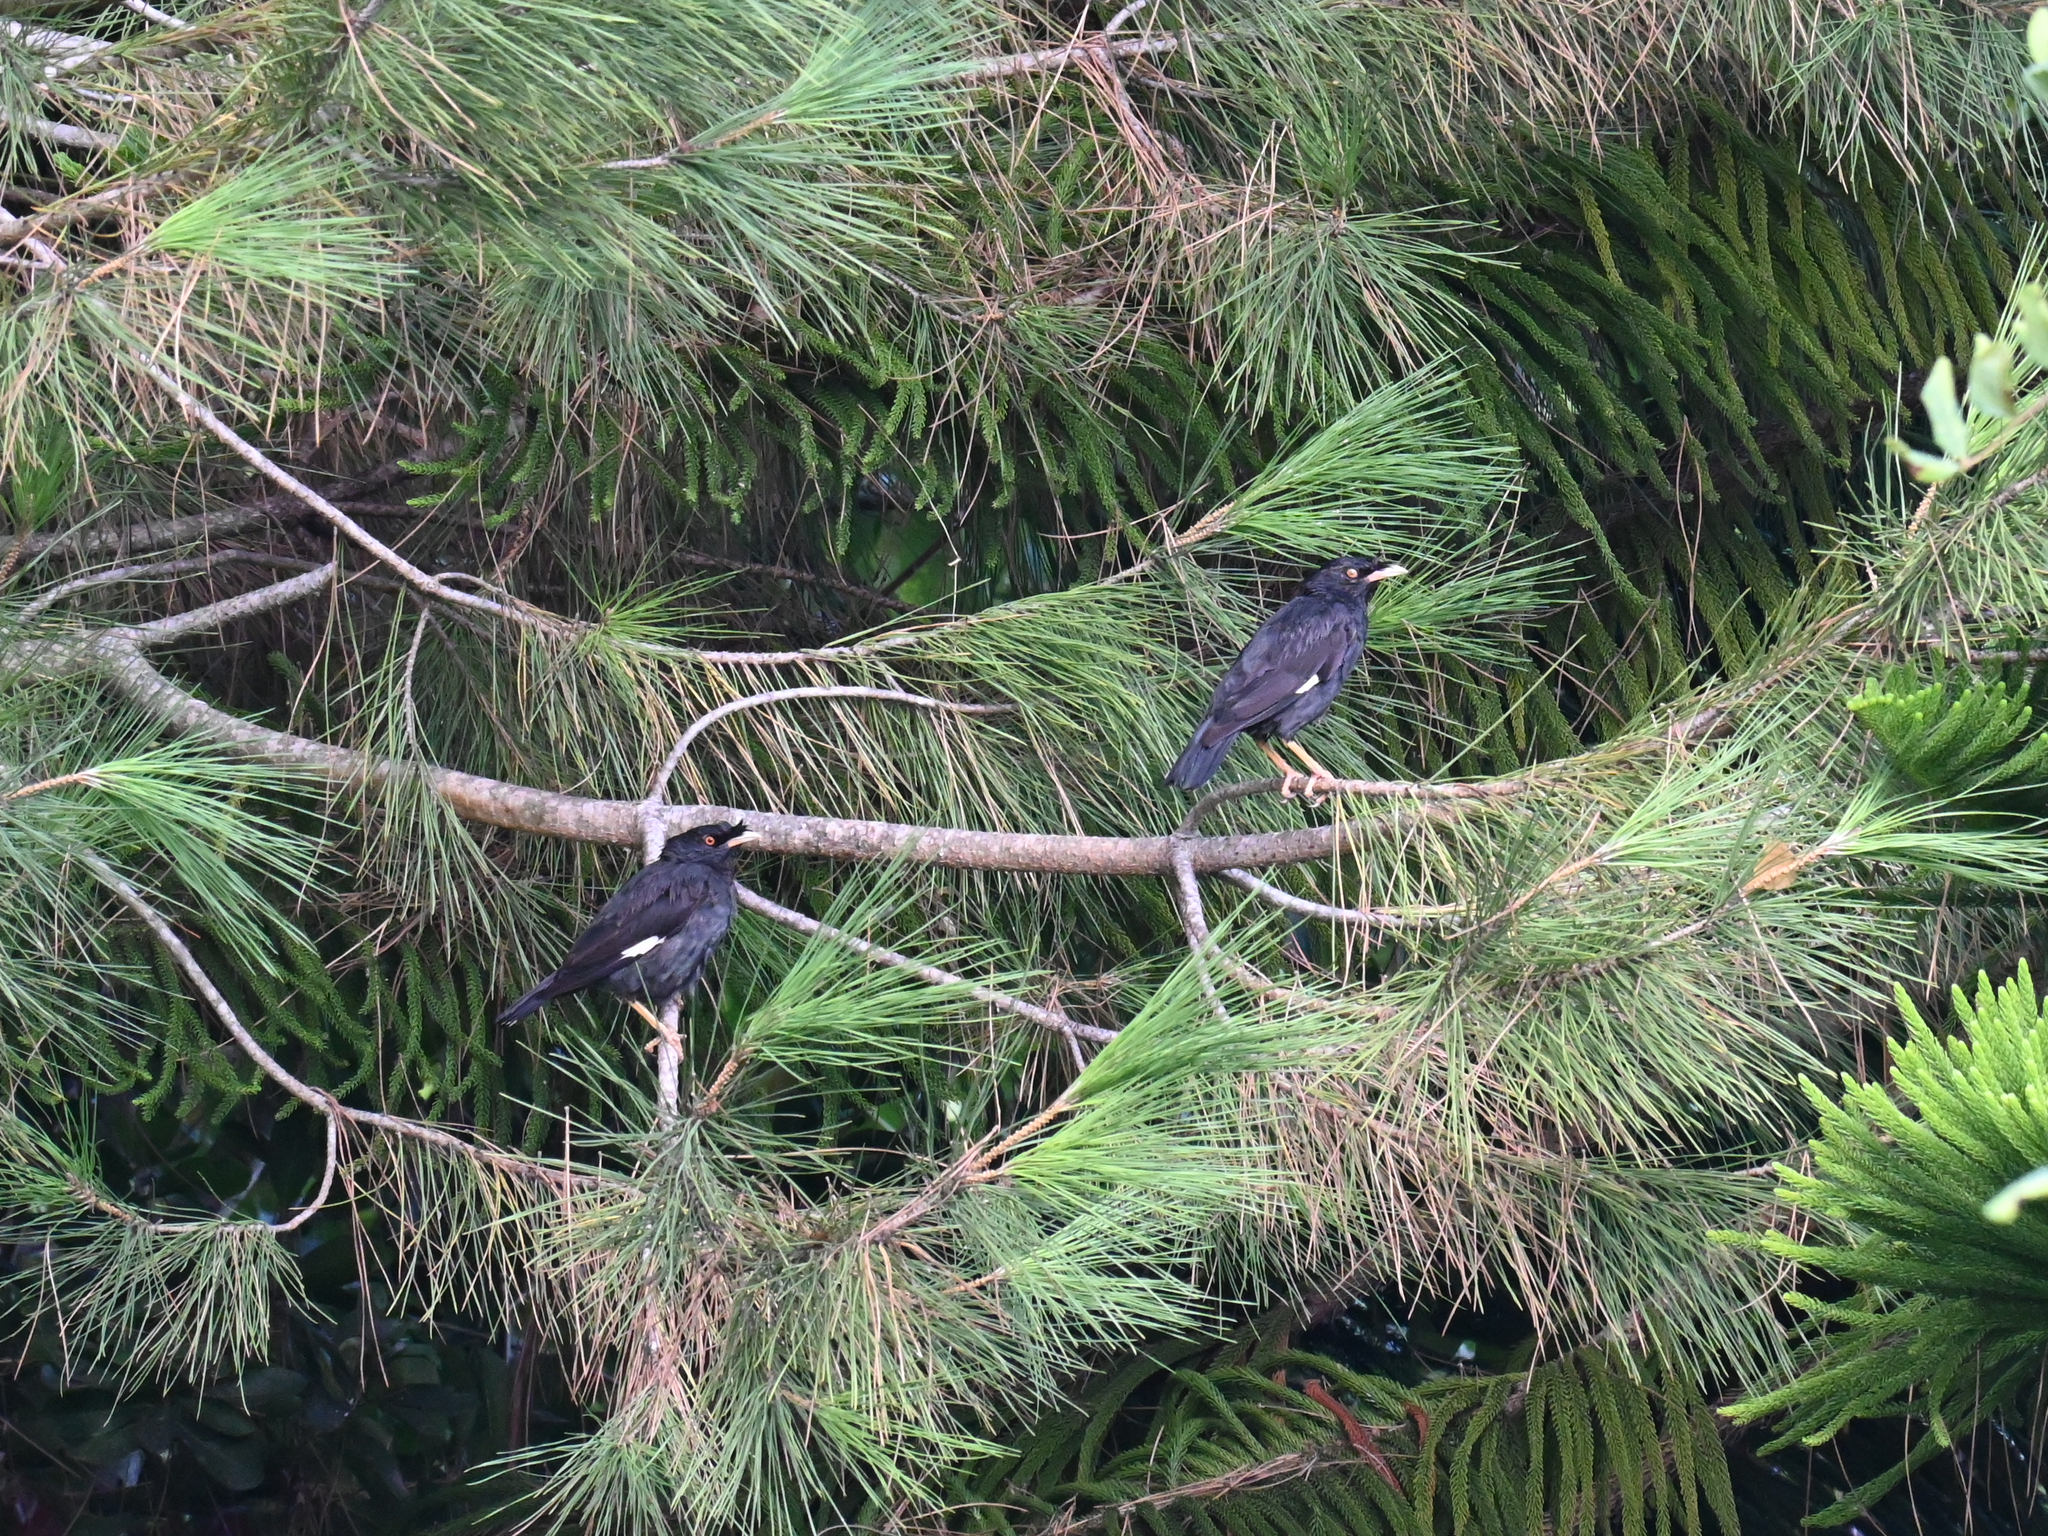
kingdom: Animalia
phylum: Chordata
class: Aves
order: Passeriformes
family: Sturnidae
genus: Acridotheres
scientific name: Acridotheres cristatellus
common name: Crested myna
